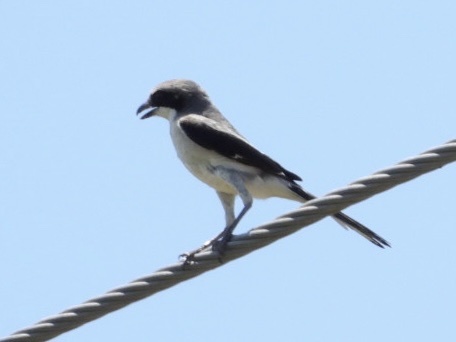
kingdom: Animalia
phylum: Chordata
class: Aves
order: Passeriformes
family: Laniidae
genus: Lanius
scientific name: Lanius ludovicianus
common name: Loggerhead shrike
